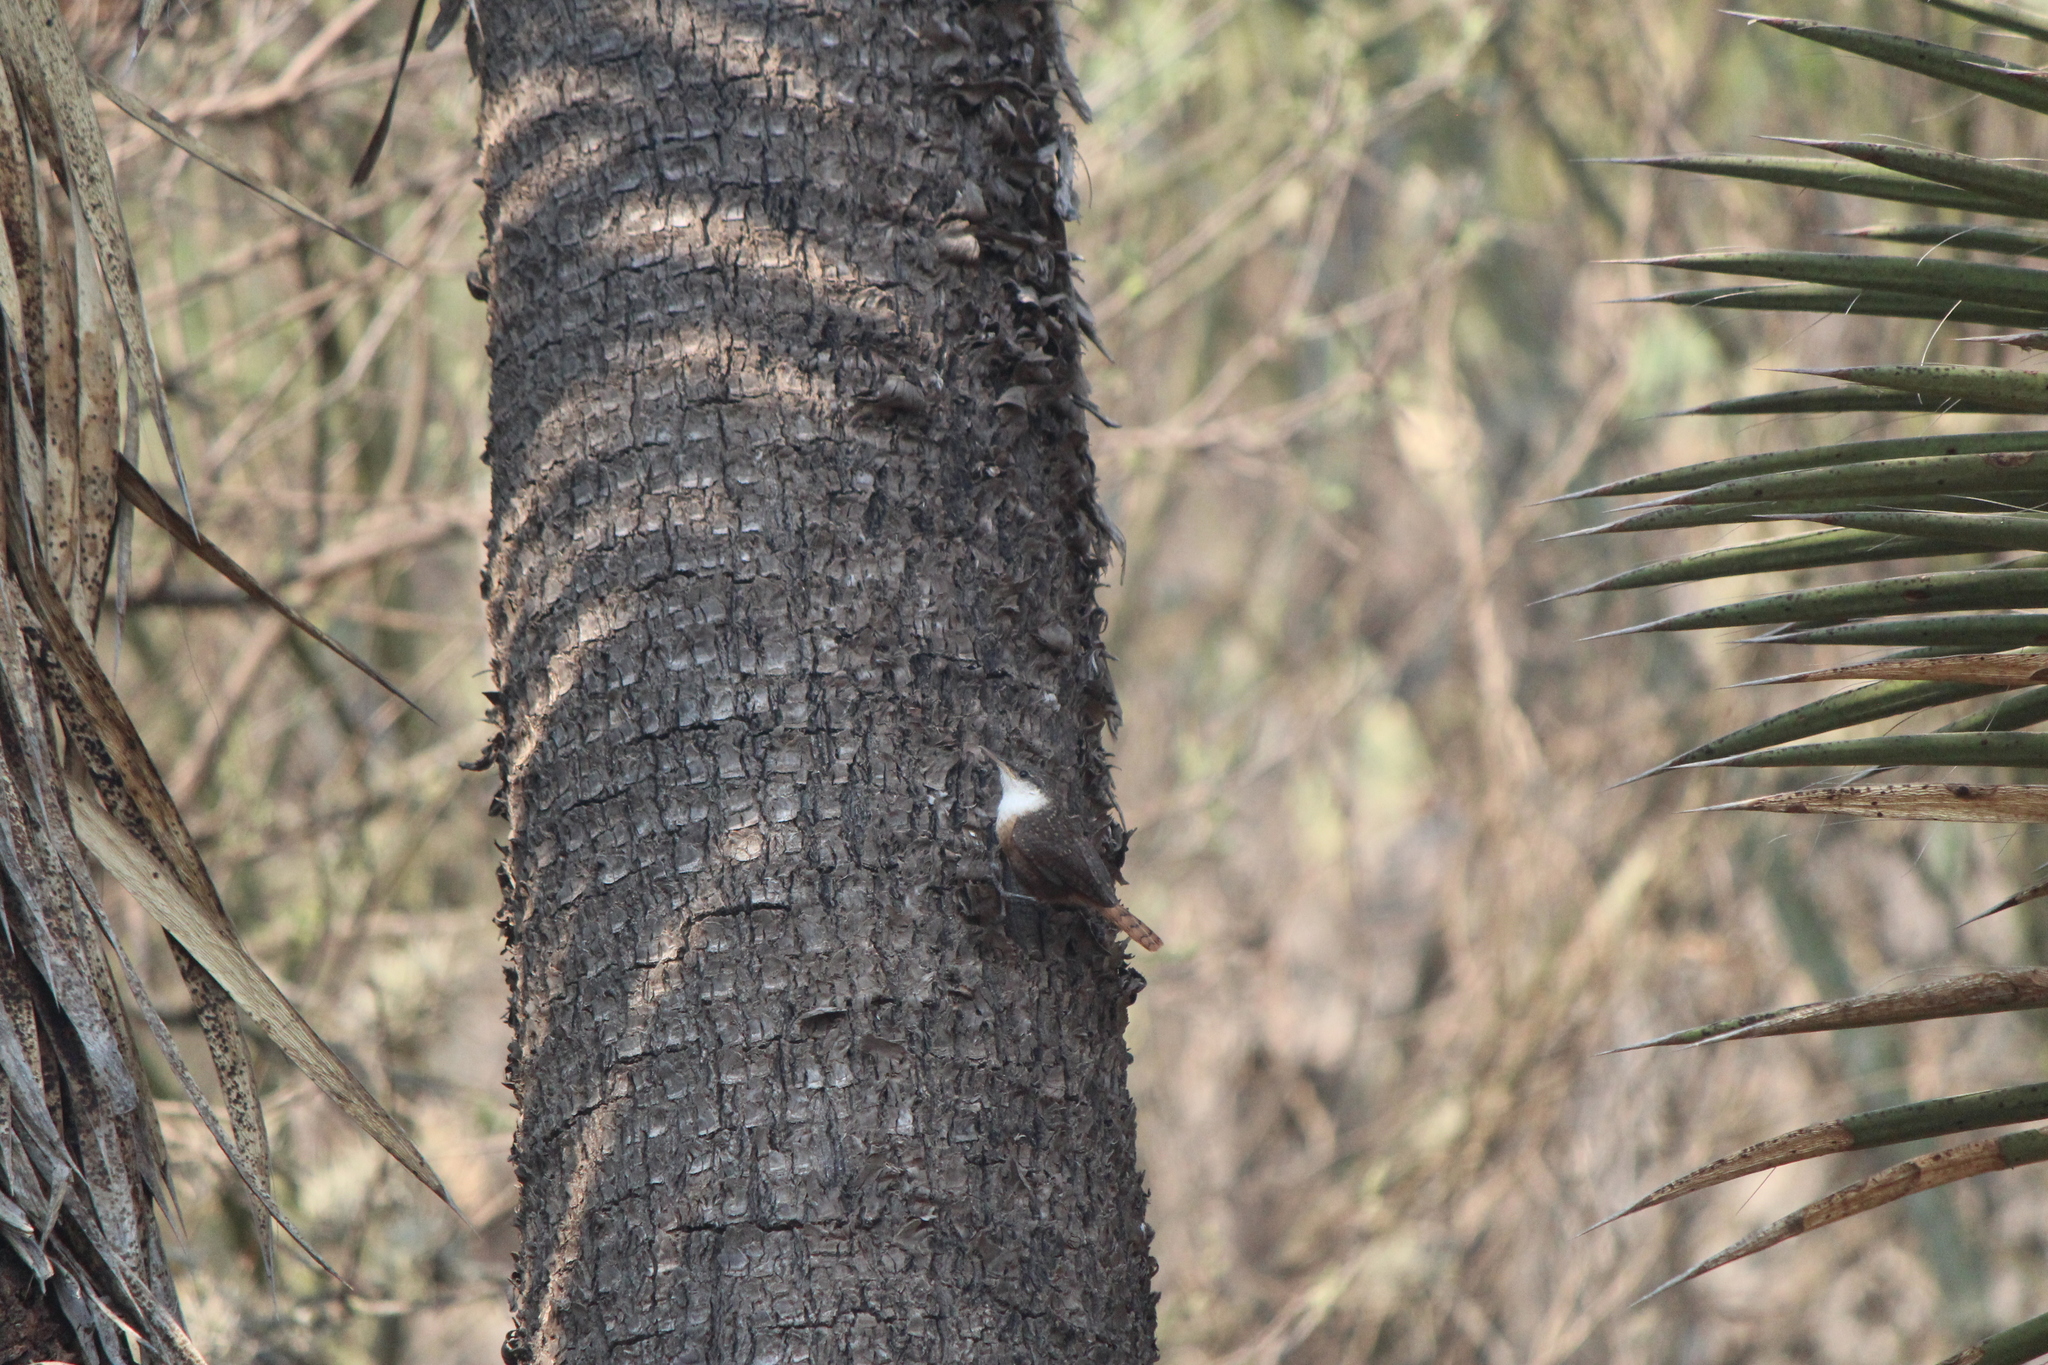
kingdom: Animalia
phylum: Chordata
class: Aves
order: Passeriformes
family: Troglodytidae
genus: Catherpes
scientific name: Catherpes mexicanus
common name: Canyon wren
